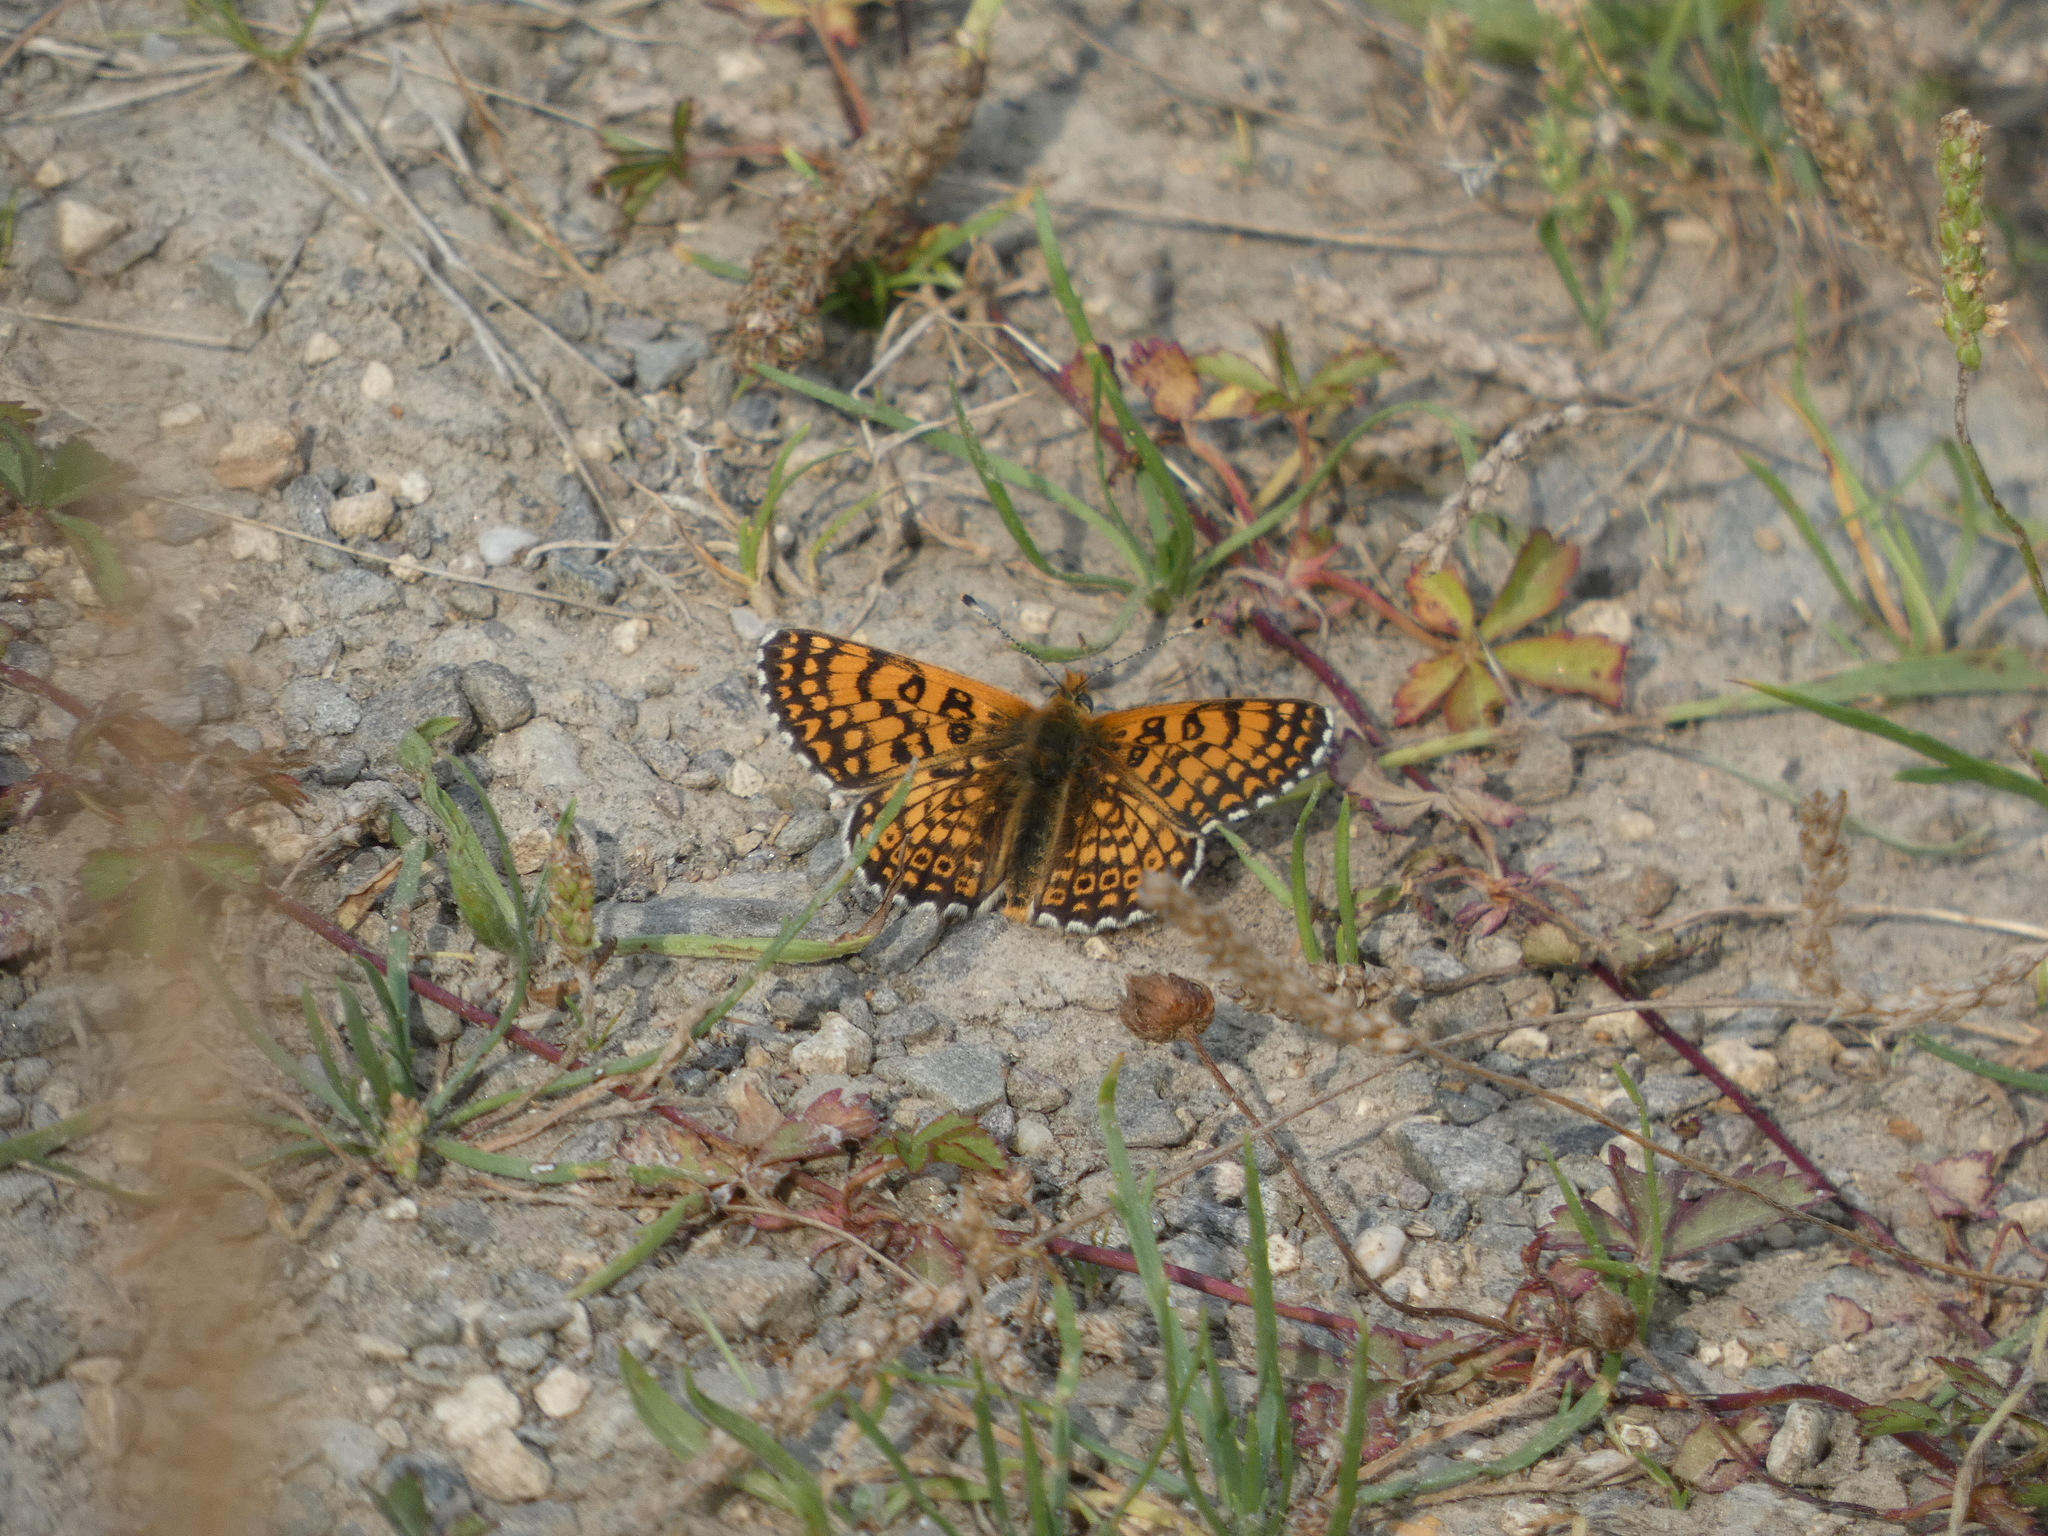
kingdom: Animalia
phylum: Arthropoda
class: Insecta
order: Lepidoptera
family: Nymphalidae
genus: Melitaea
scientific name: Melitaea cinxia
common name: Glanville fritillary
